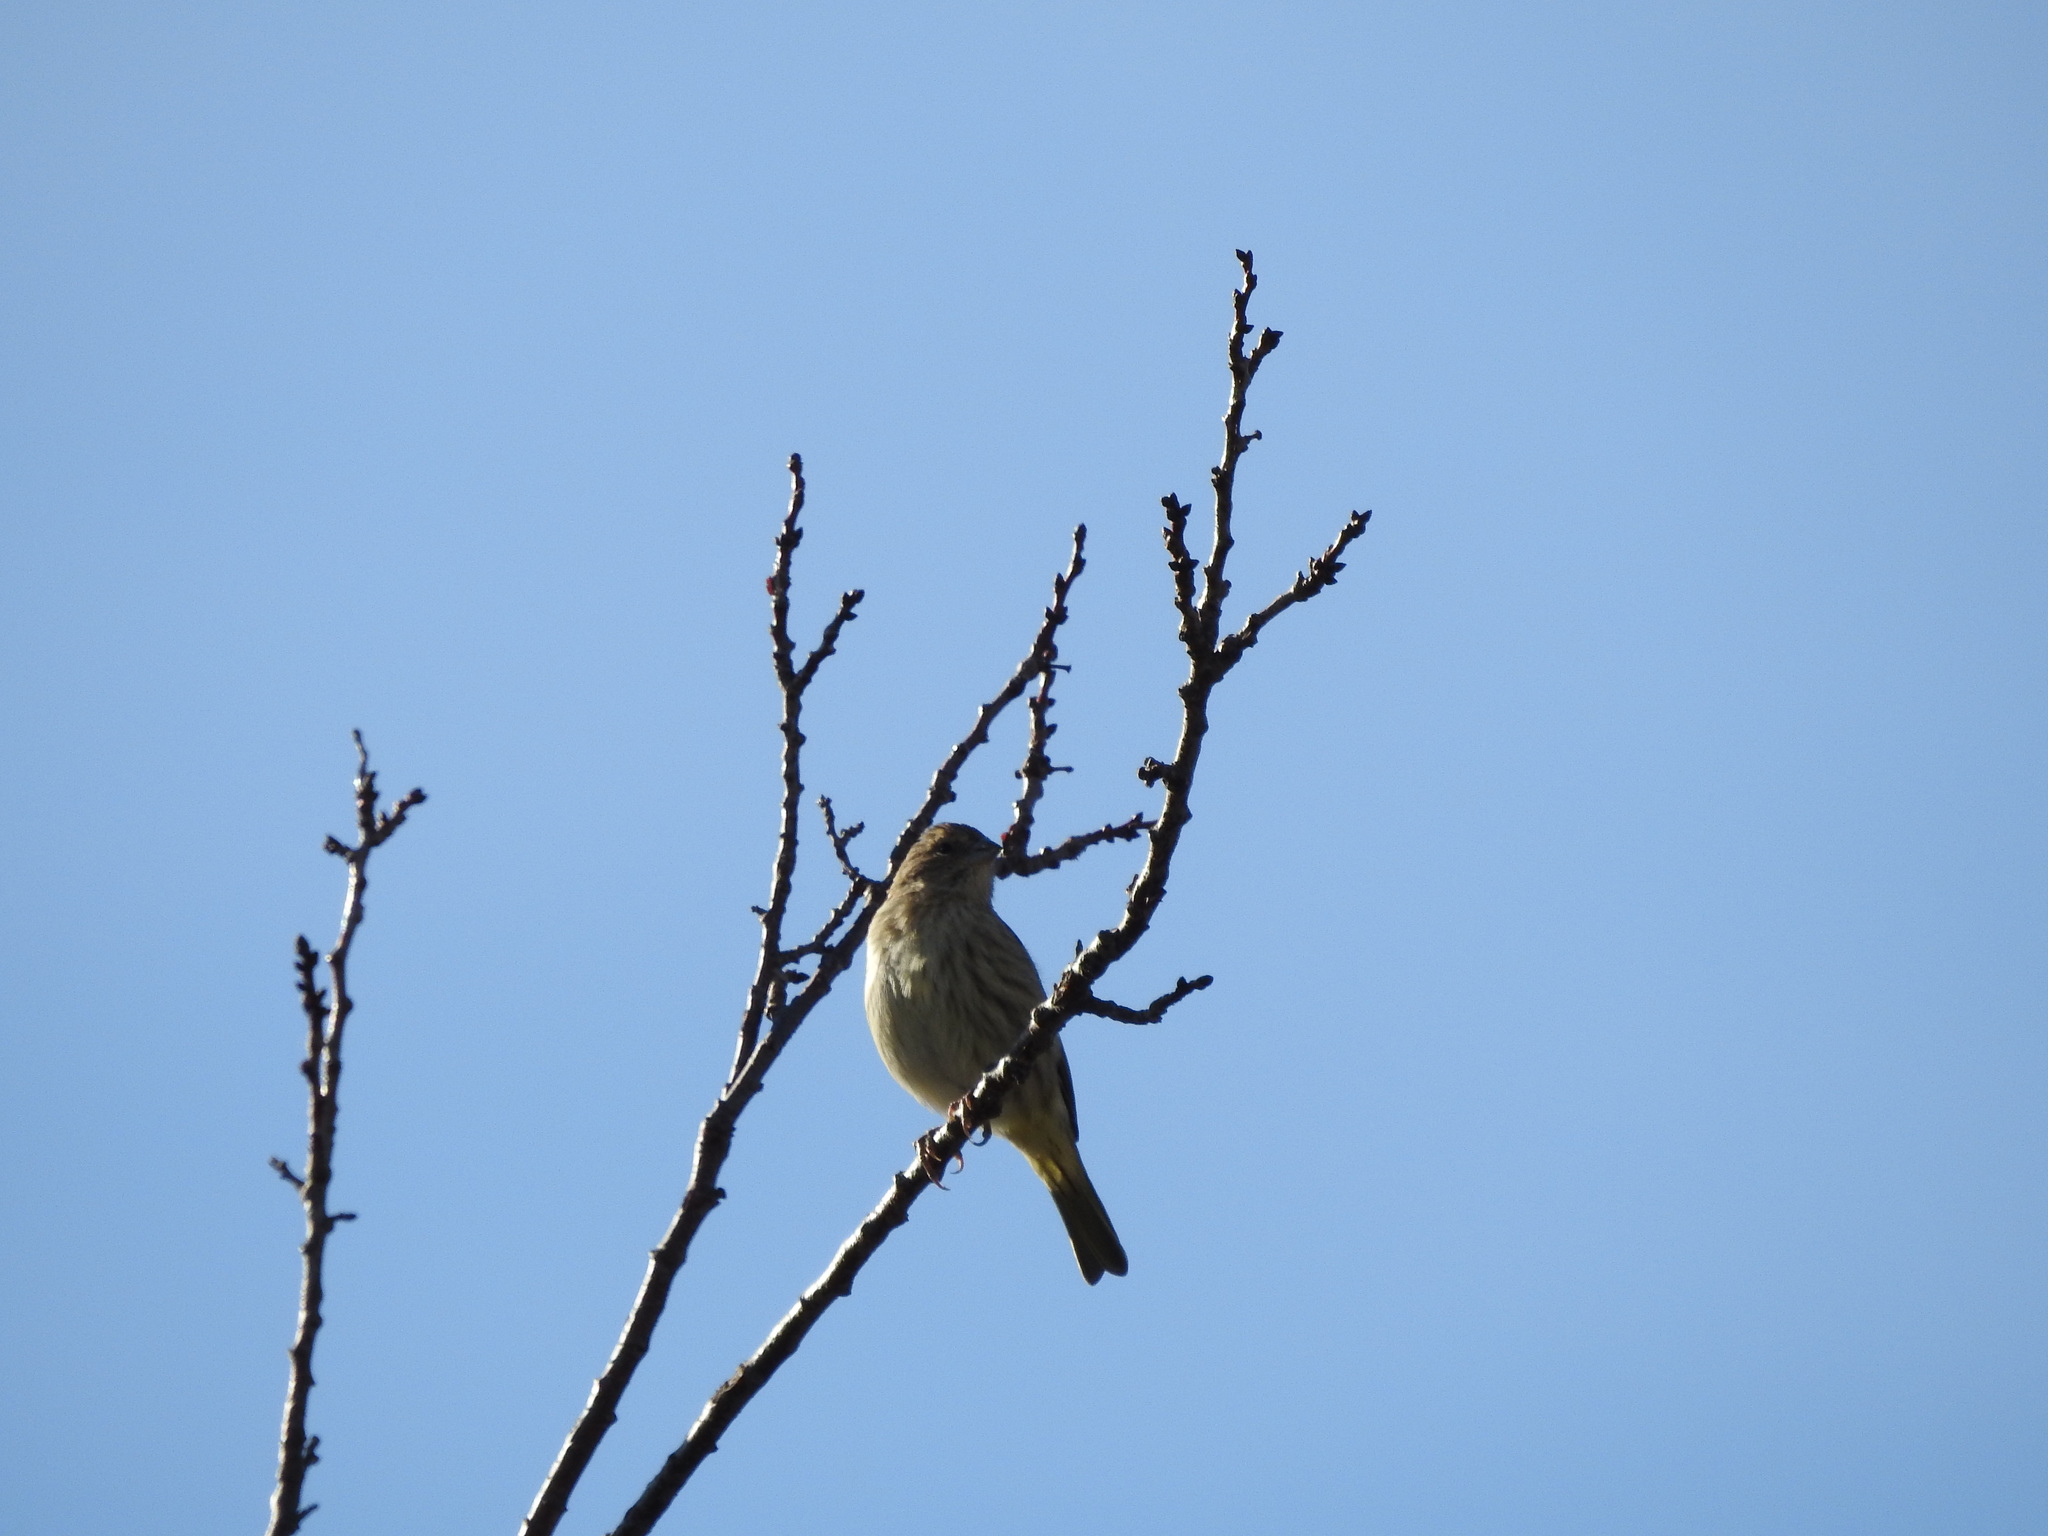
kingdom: Animalia
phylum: Chordata
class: Aves
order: Passeriformes
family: Thraupidae
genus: Sicalis
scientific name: Sicalis flaveola
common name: Saffron finch
